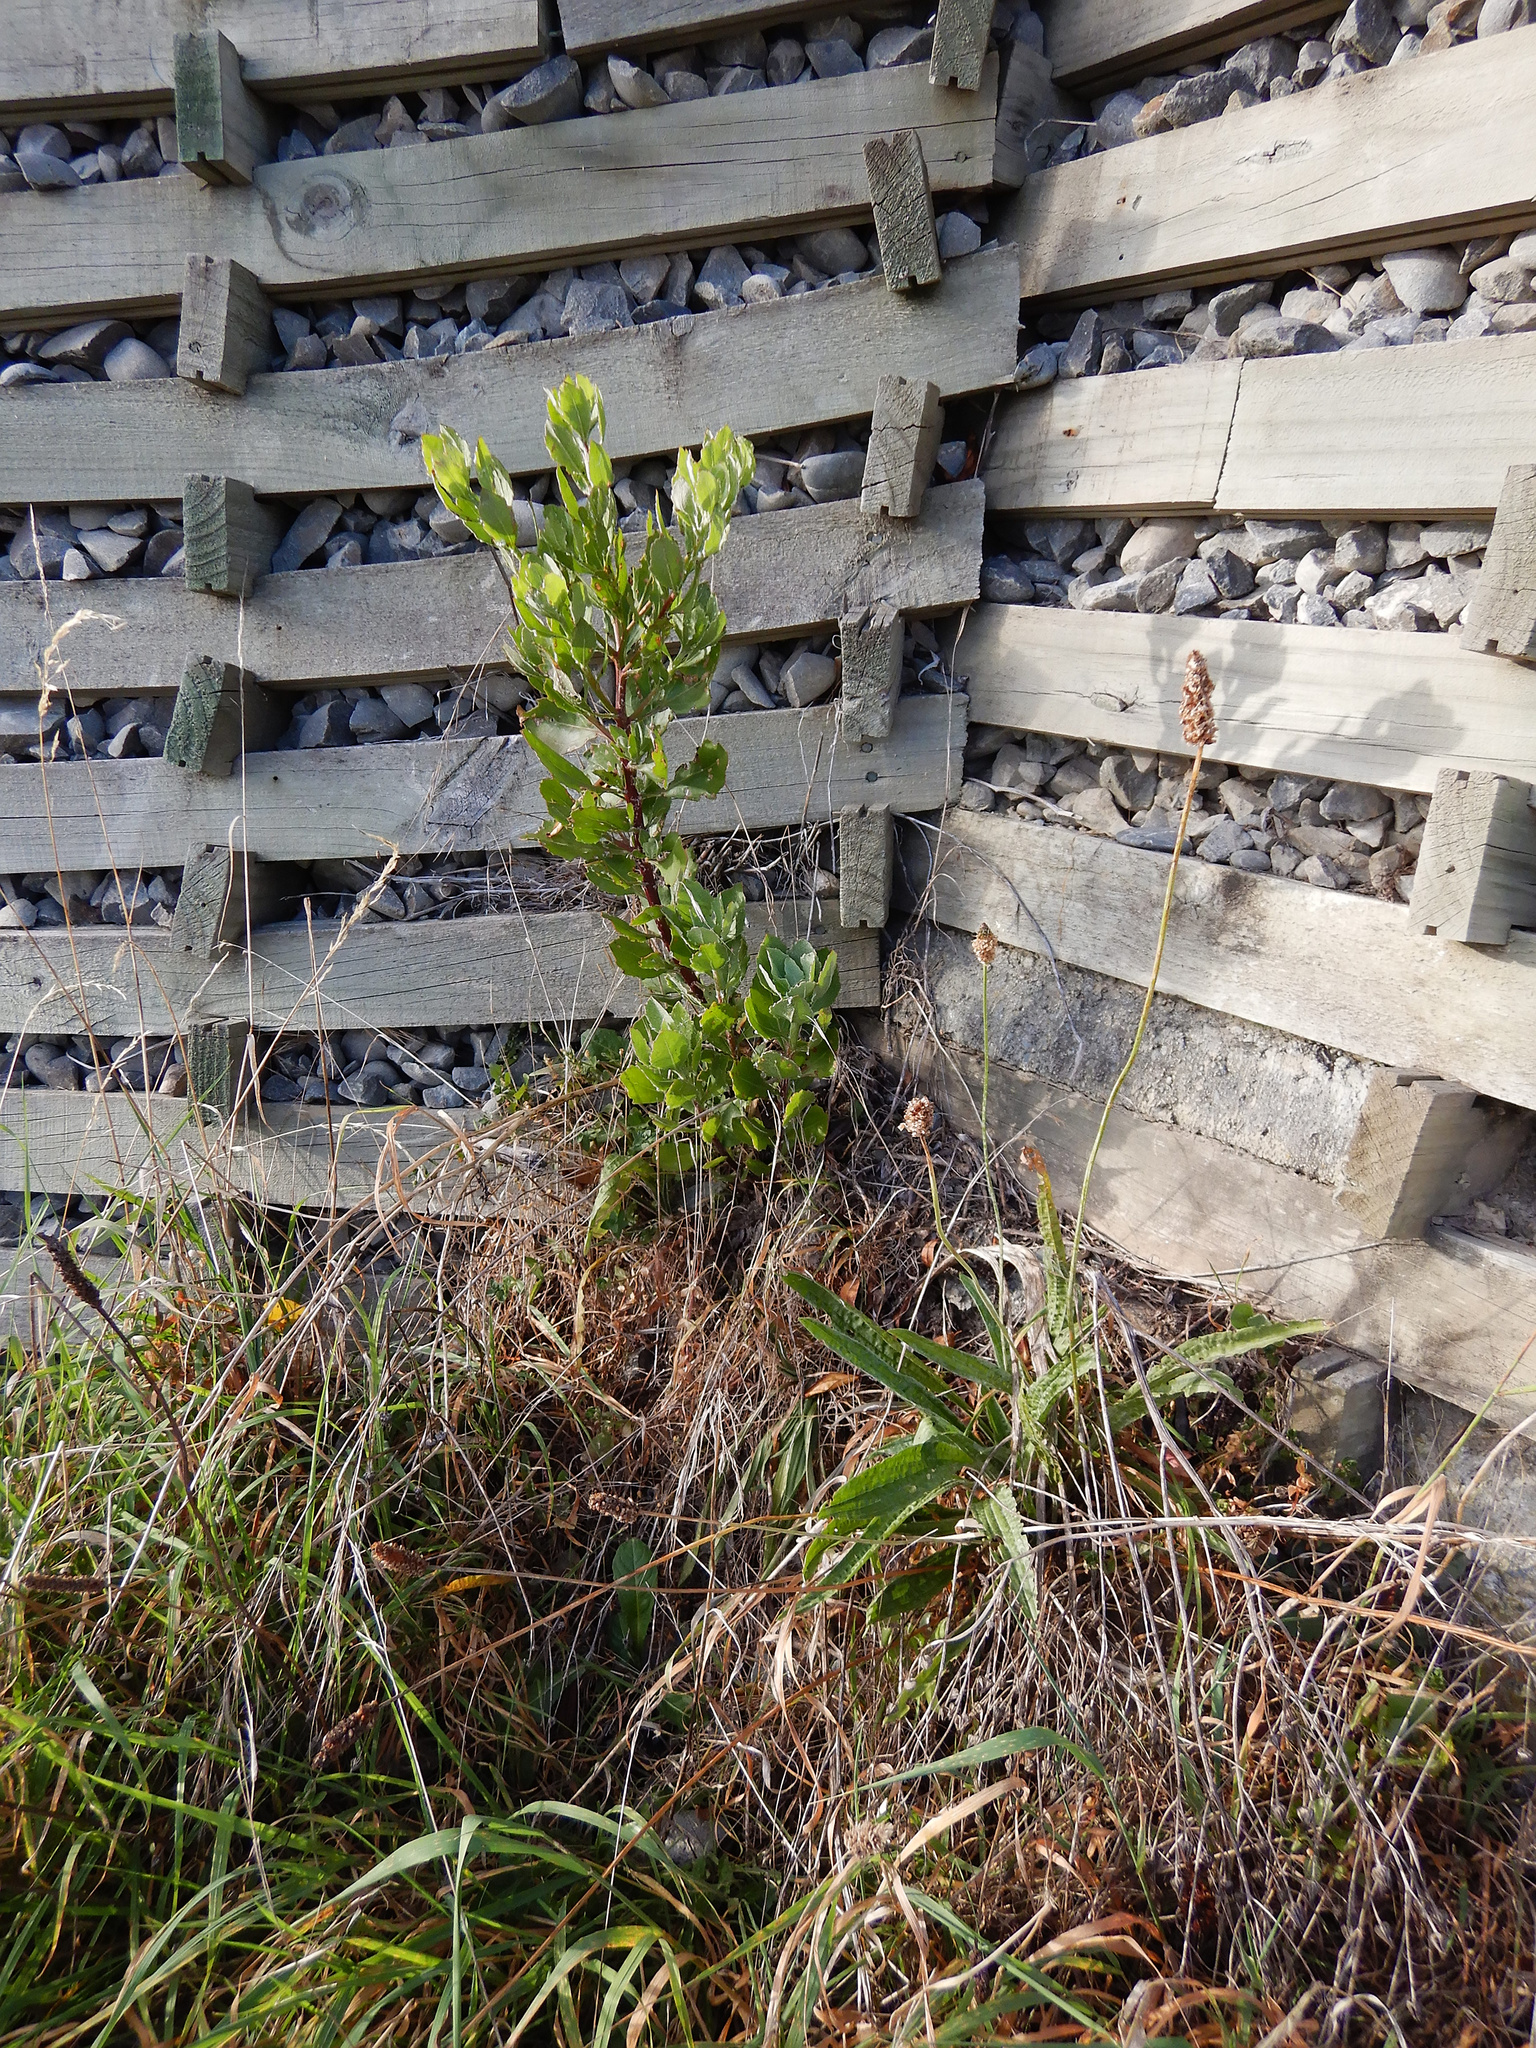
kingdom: Plantae
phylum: Tracheophyta
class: Magnoliopsida
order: Asterales
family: Asteraceae
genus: Osteospermum
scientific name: Osteospermum moniliferum
